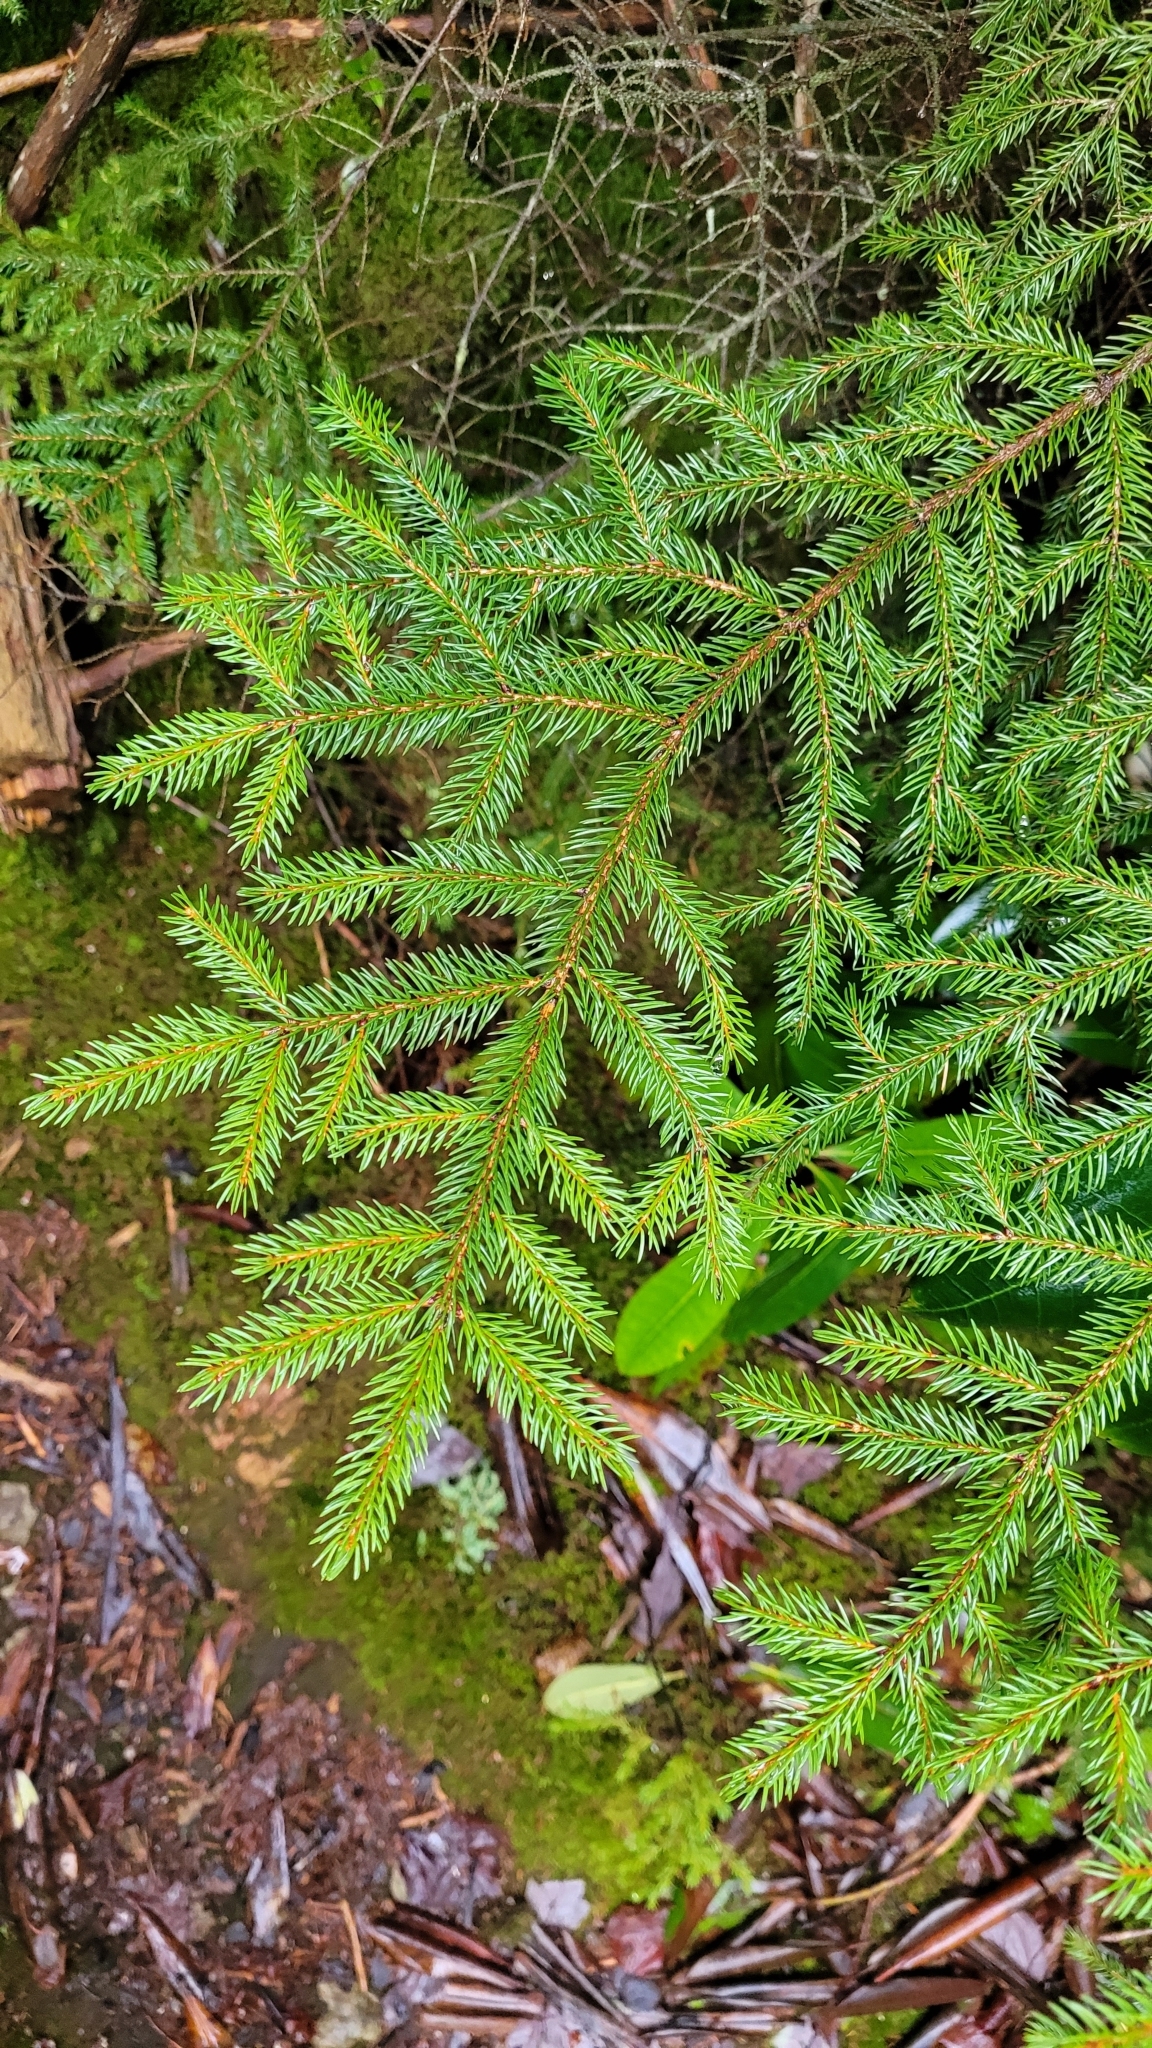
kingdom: Plantae
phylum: Tracheophyta
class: Pinopsida
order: Pinales
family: Pinaceae
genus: Picea
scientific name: Picea rubens
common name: Red spruce
